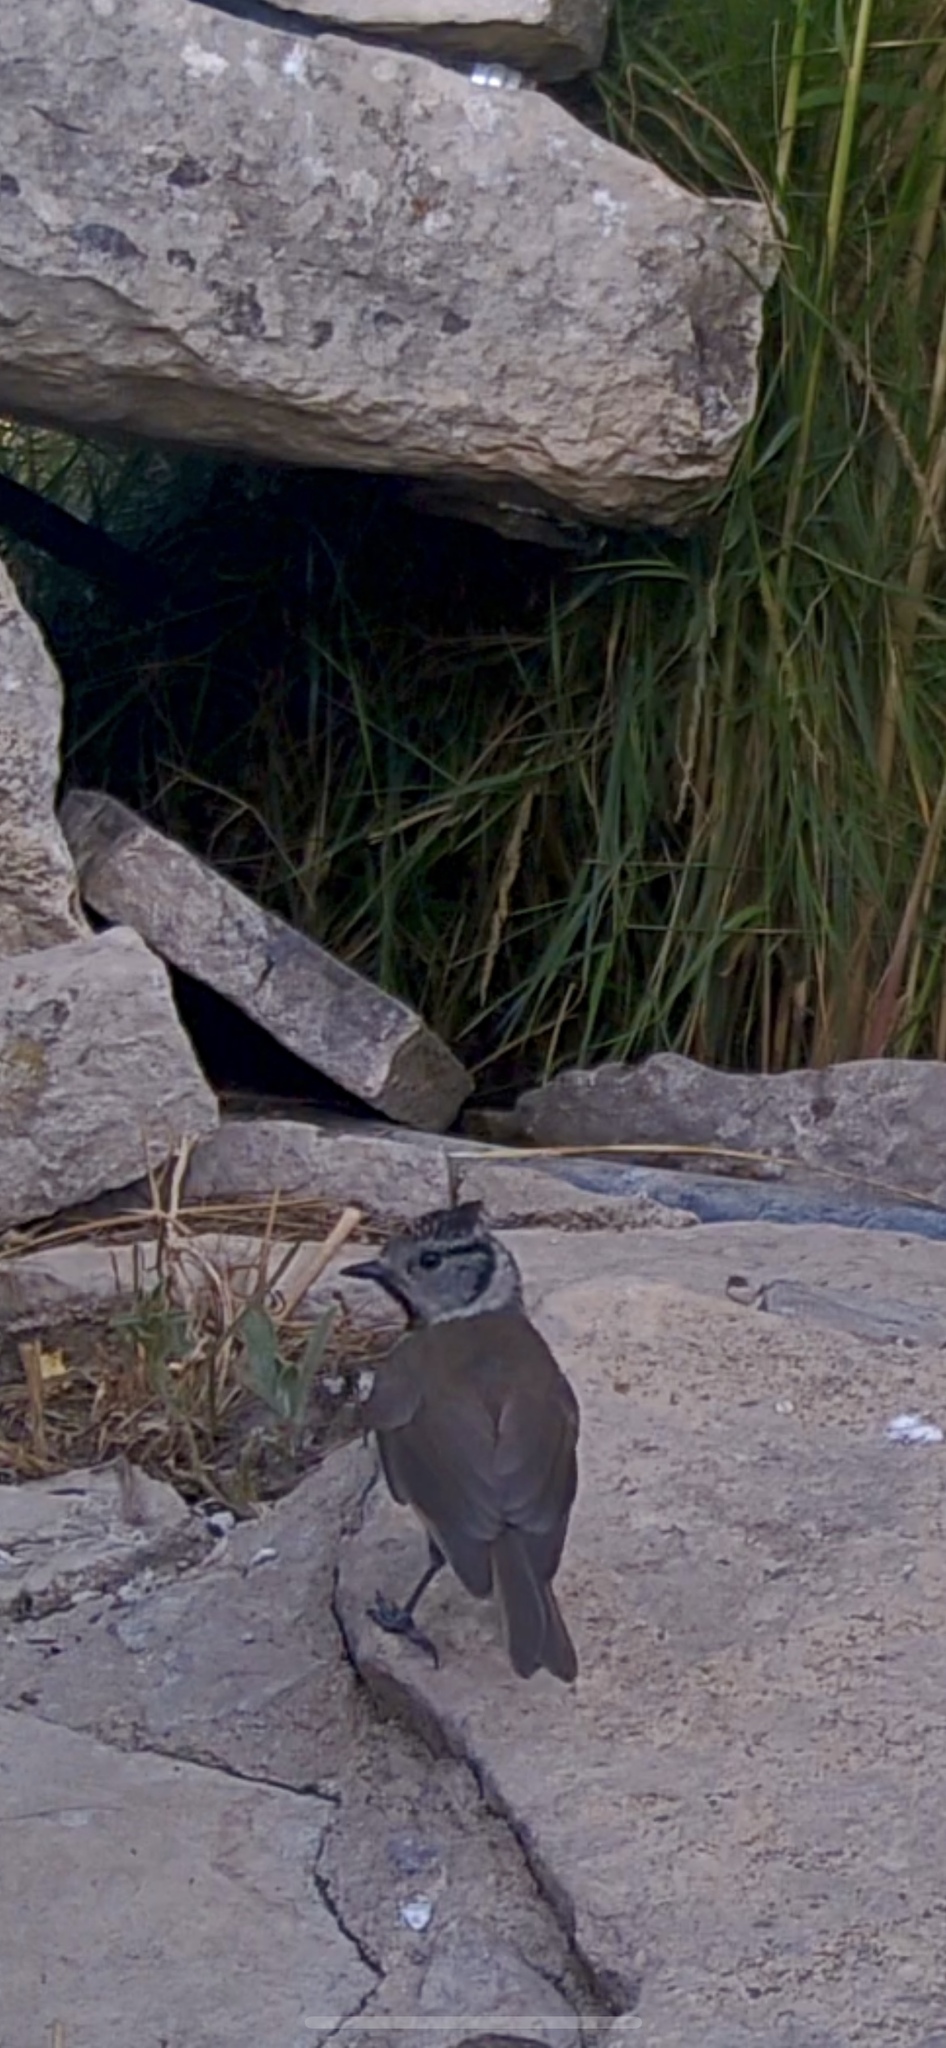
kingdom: Animalia
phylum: Chordata
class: Aves
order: Passeriformes
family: Paridae
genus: Lophophanes
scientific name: Lophophanes cristatus
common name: European crested tit
